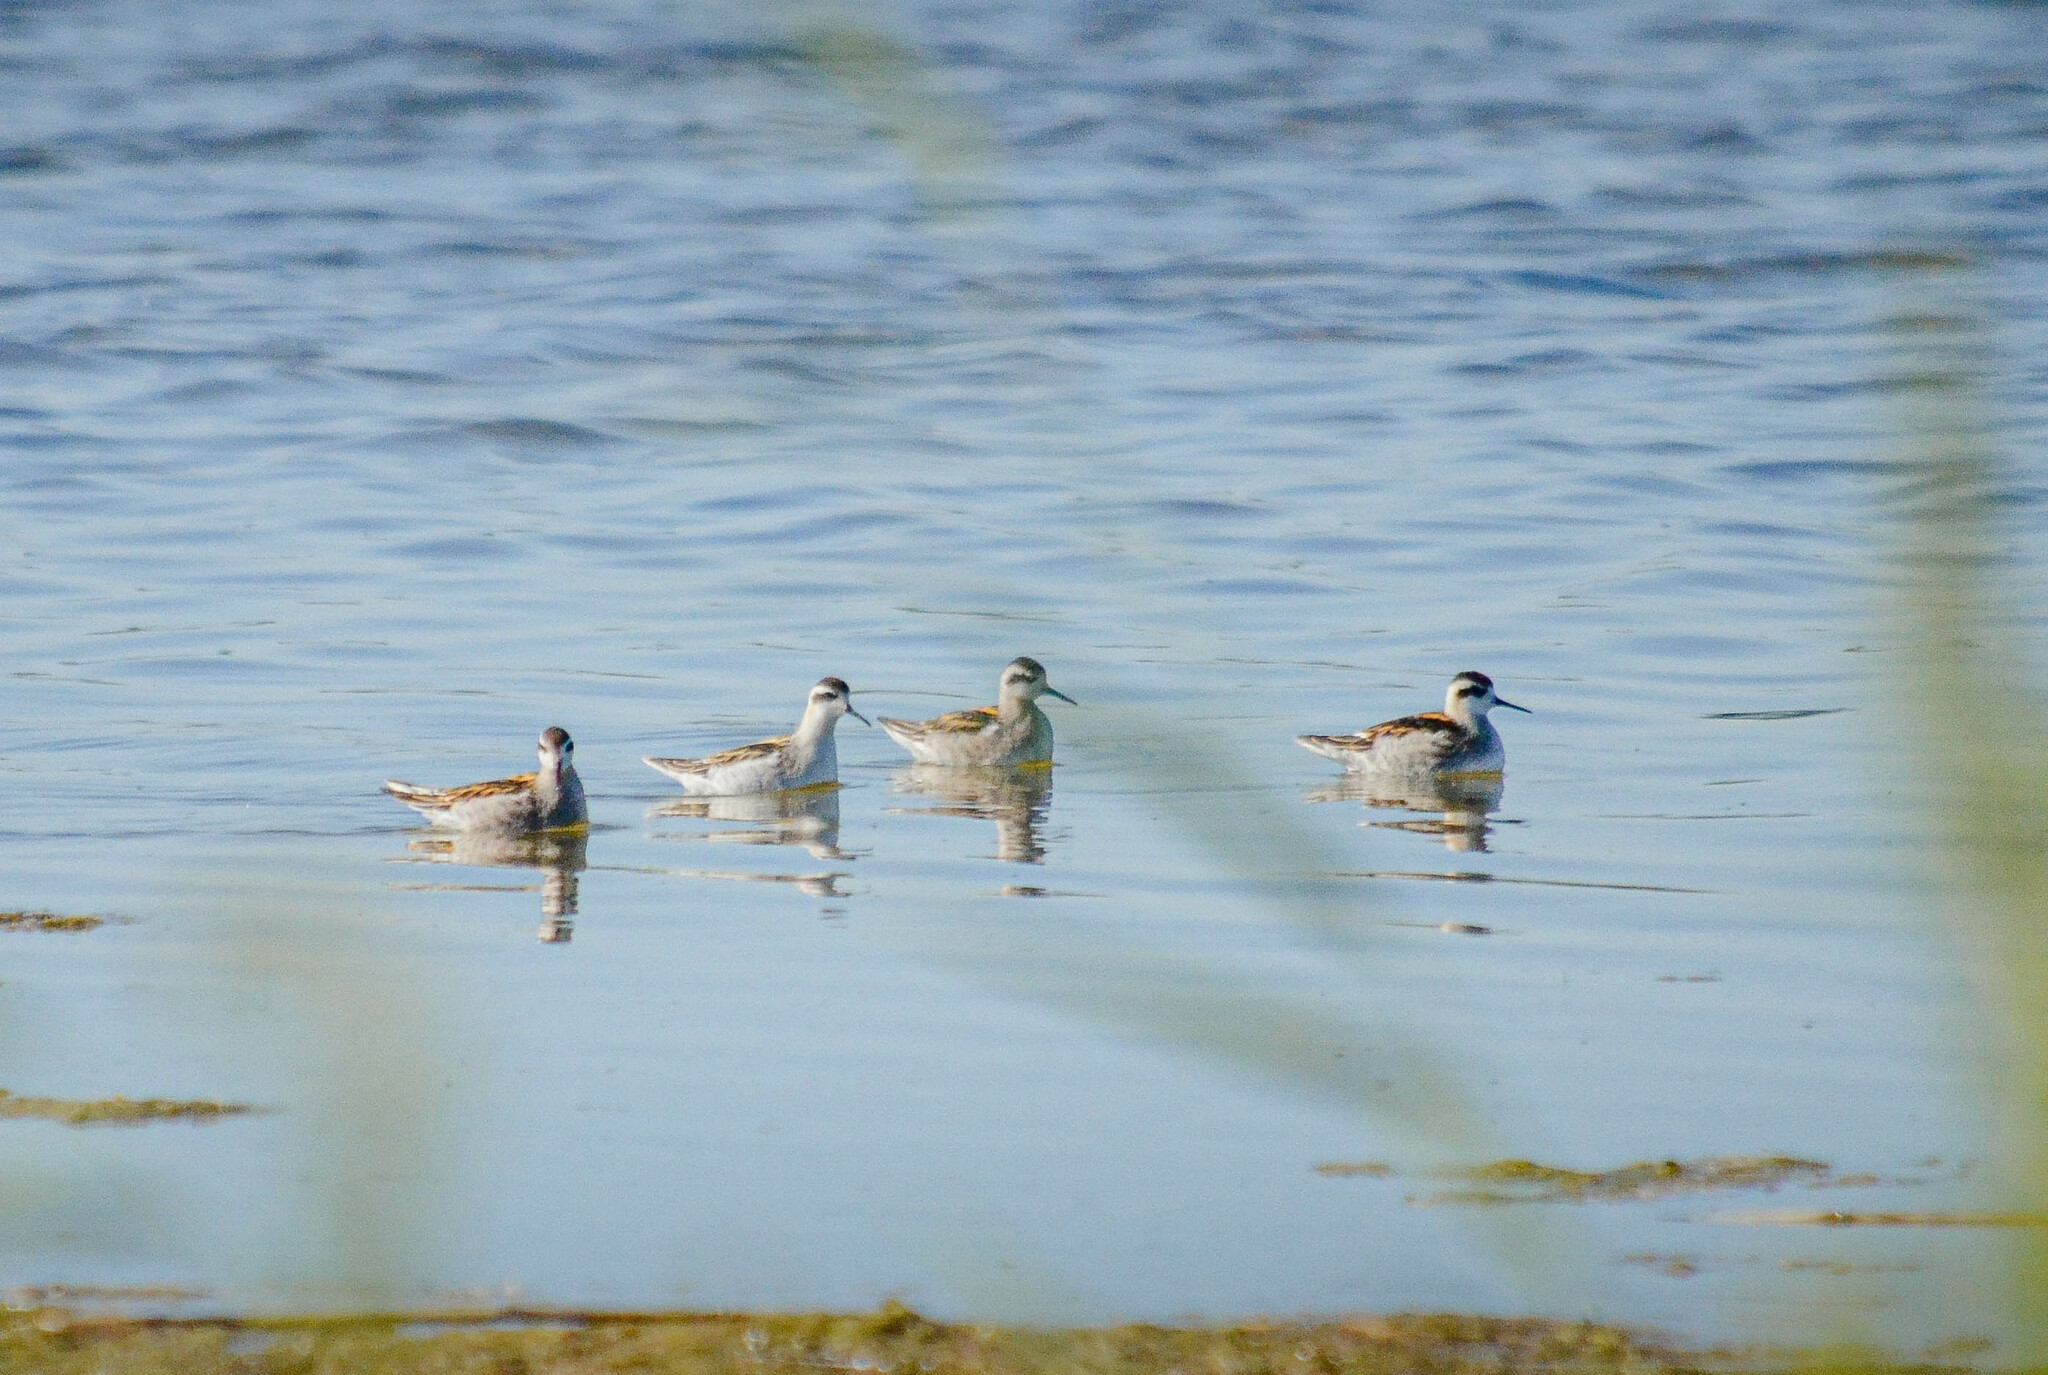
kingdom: Animalia
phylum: Chordata
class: Aves
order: Charadriiformes
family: Scolopacidae
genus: Phalaropus
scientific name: Phalaropus lobatus
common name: Red-necked phalarope
